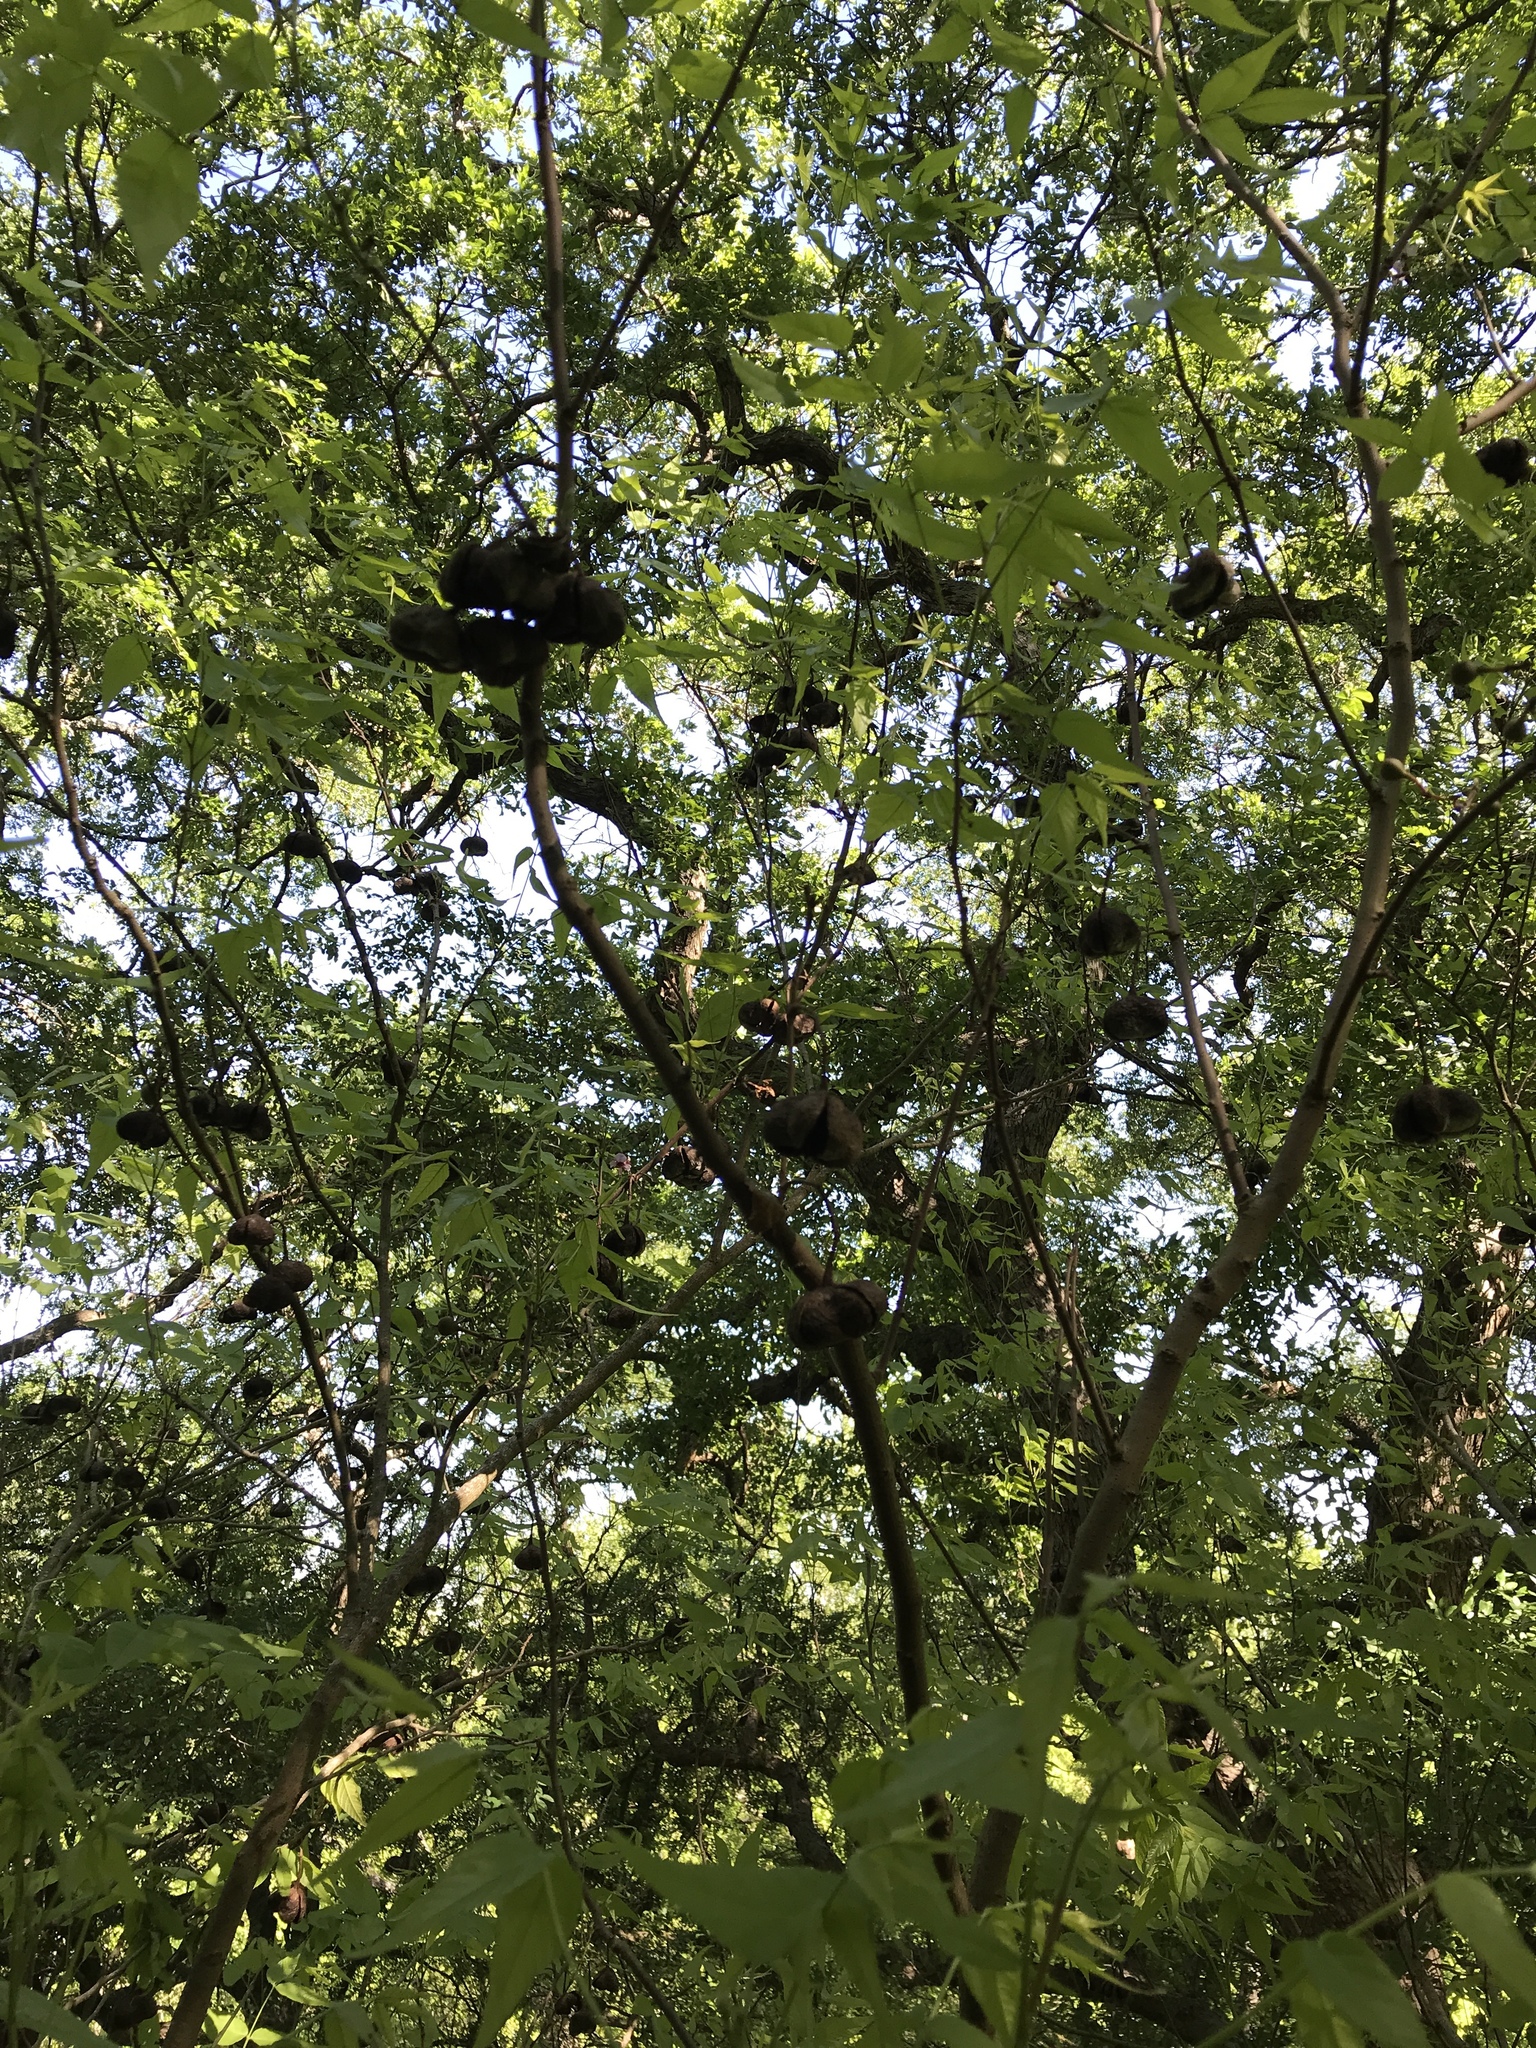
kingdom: Plantae
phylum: Tracheophyta
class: Magnoliopsida
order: Sapindales
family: Sapindaceae
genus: Ungnadia
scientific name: Ungnadia speciosa
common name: Texas-buckeye
